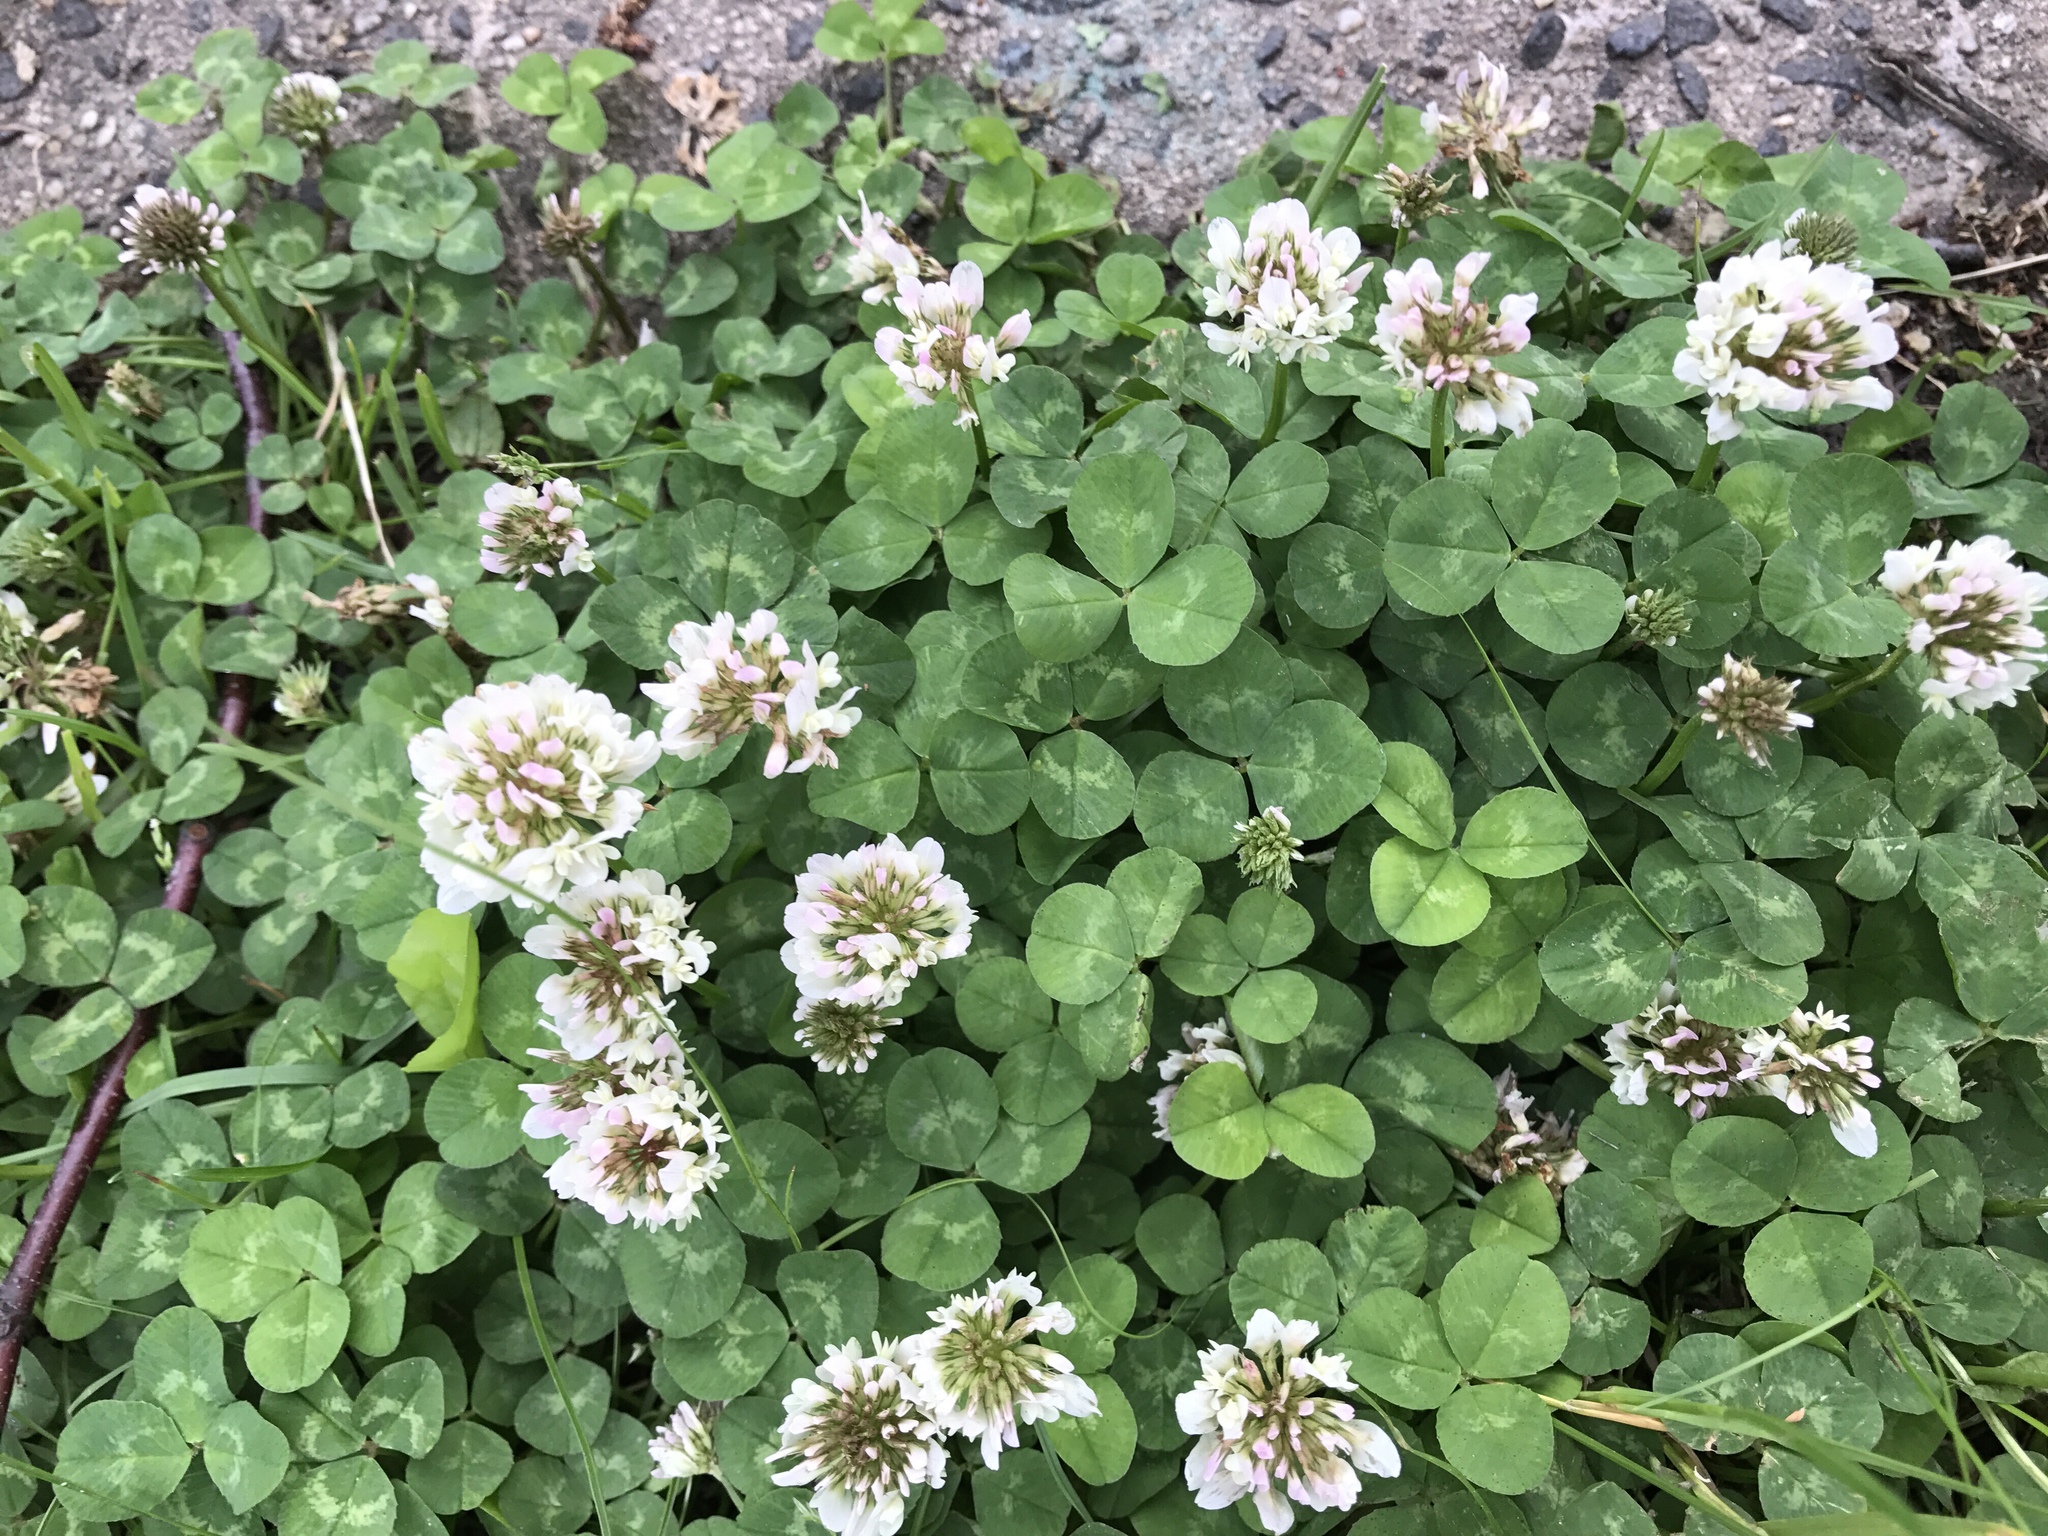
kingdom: Plantae
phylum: Tracheophyta
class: Magnoliopsida
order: Fabales
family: Fabaceae
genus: Trifolium
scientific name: Trifolium repens
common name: White clover
